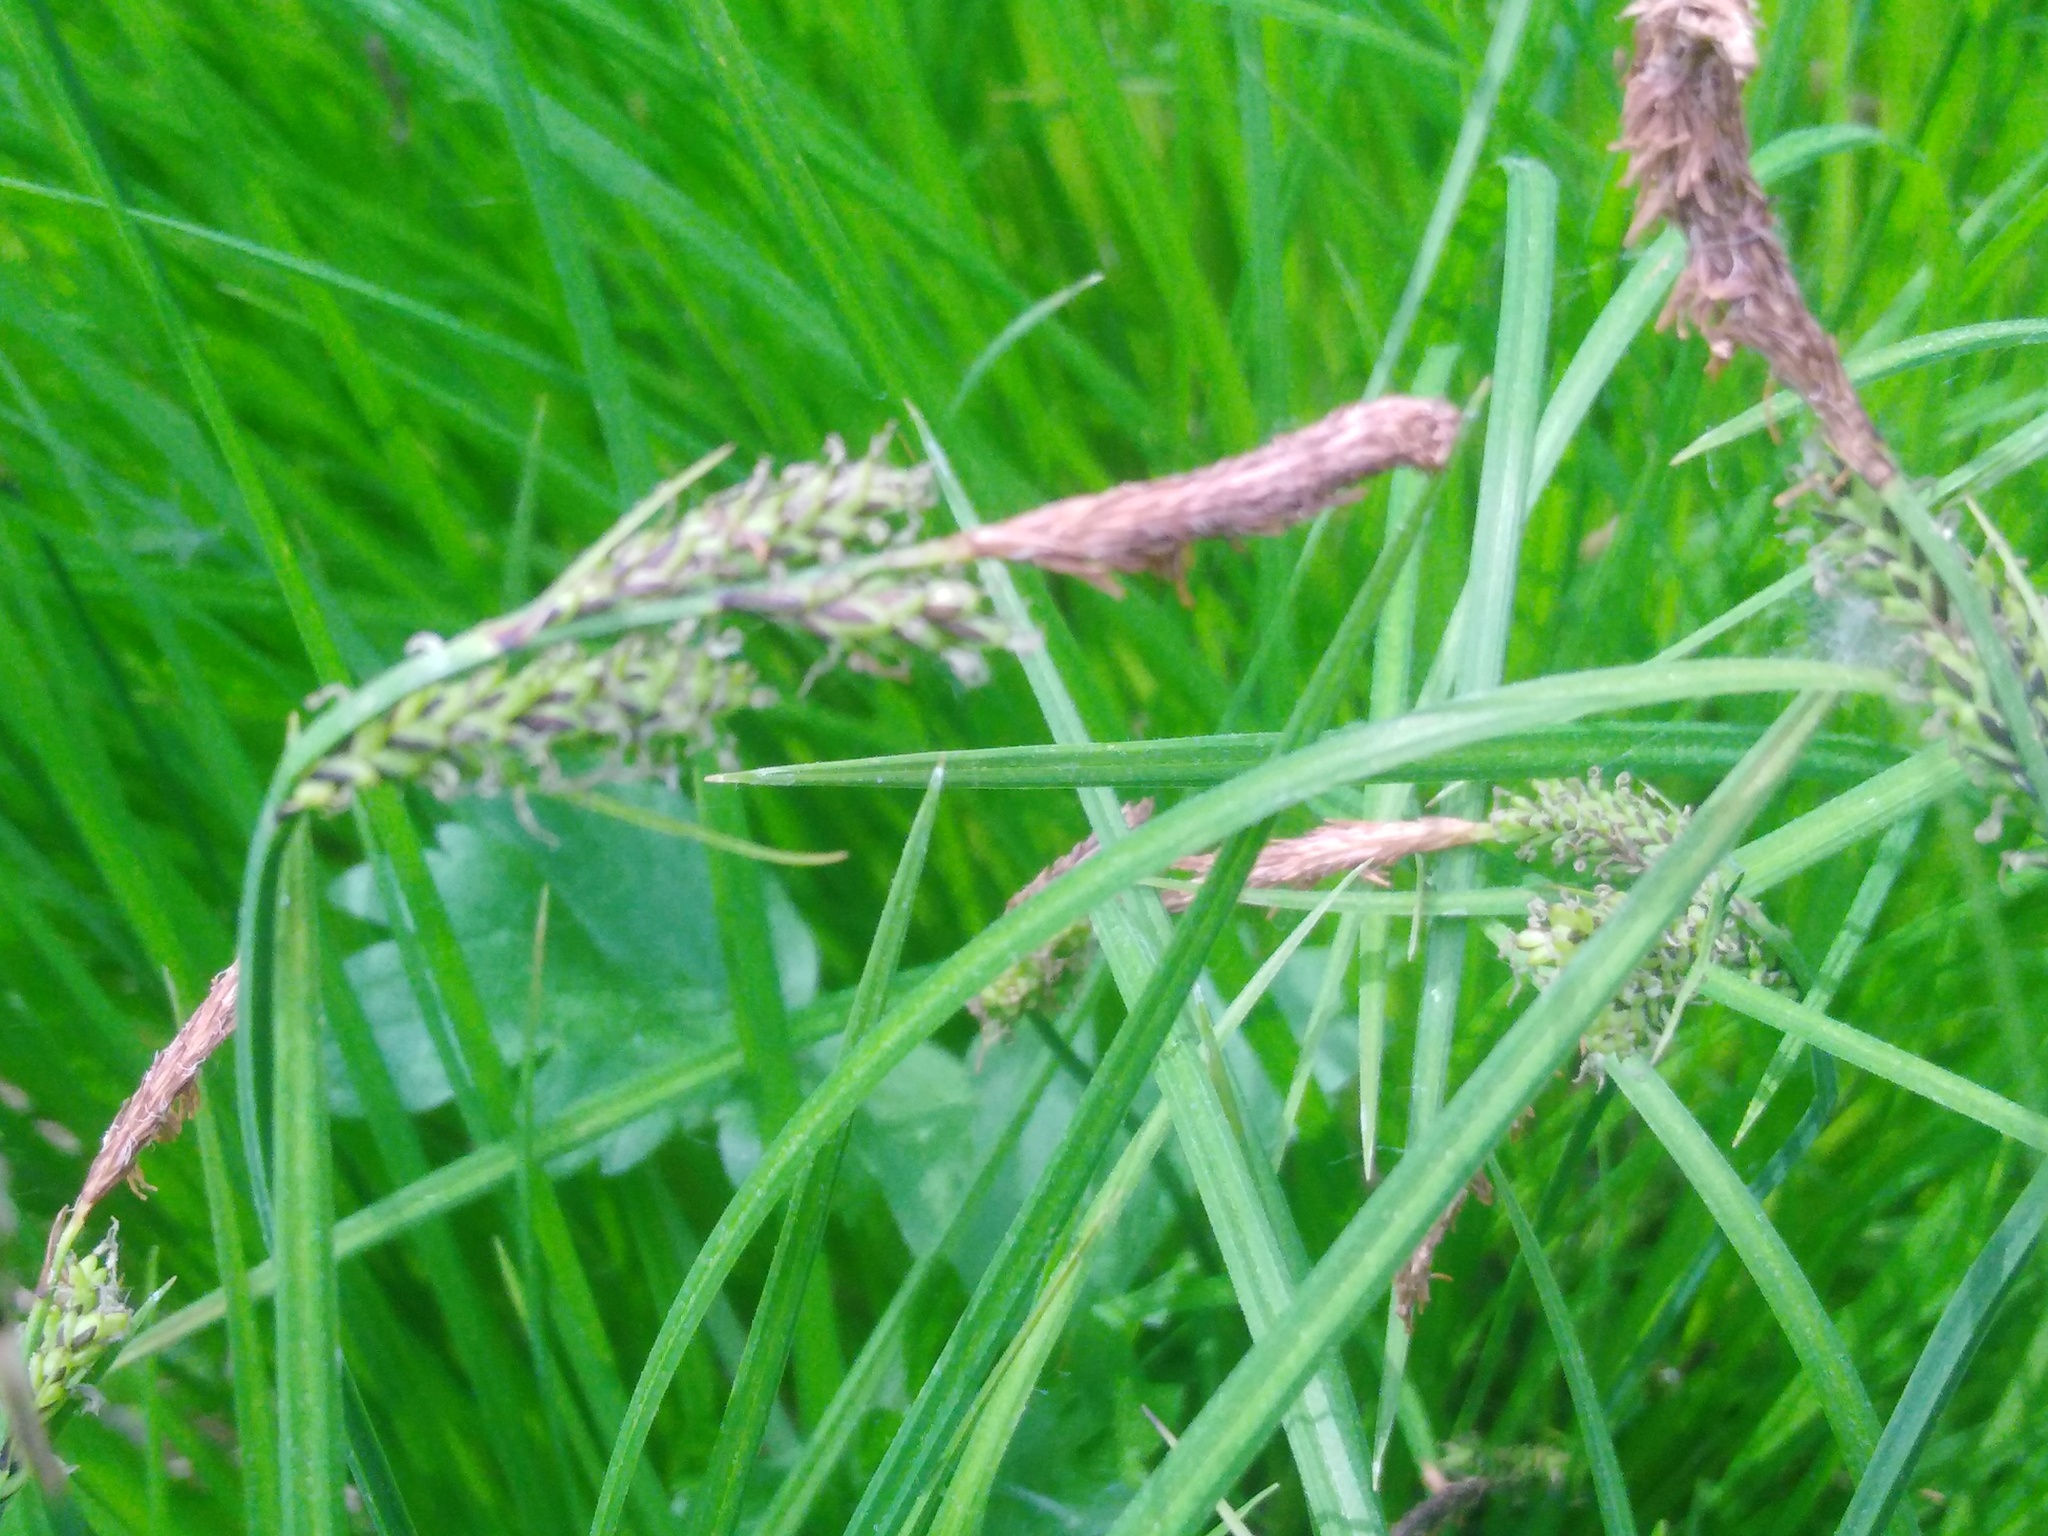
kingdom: Plantae
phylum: Tracheophyta
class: Liliopsida
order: Poales
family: Cyperaceae
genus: Carex
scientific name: Carex cespitosa
